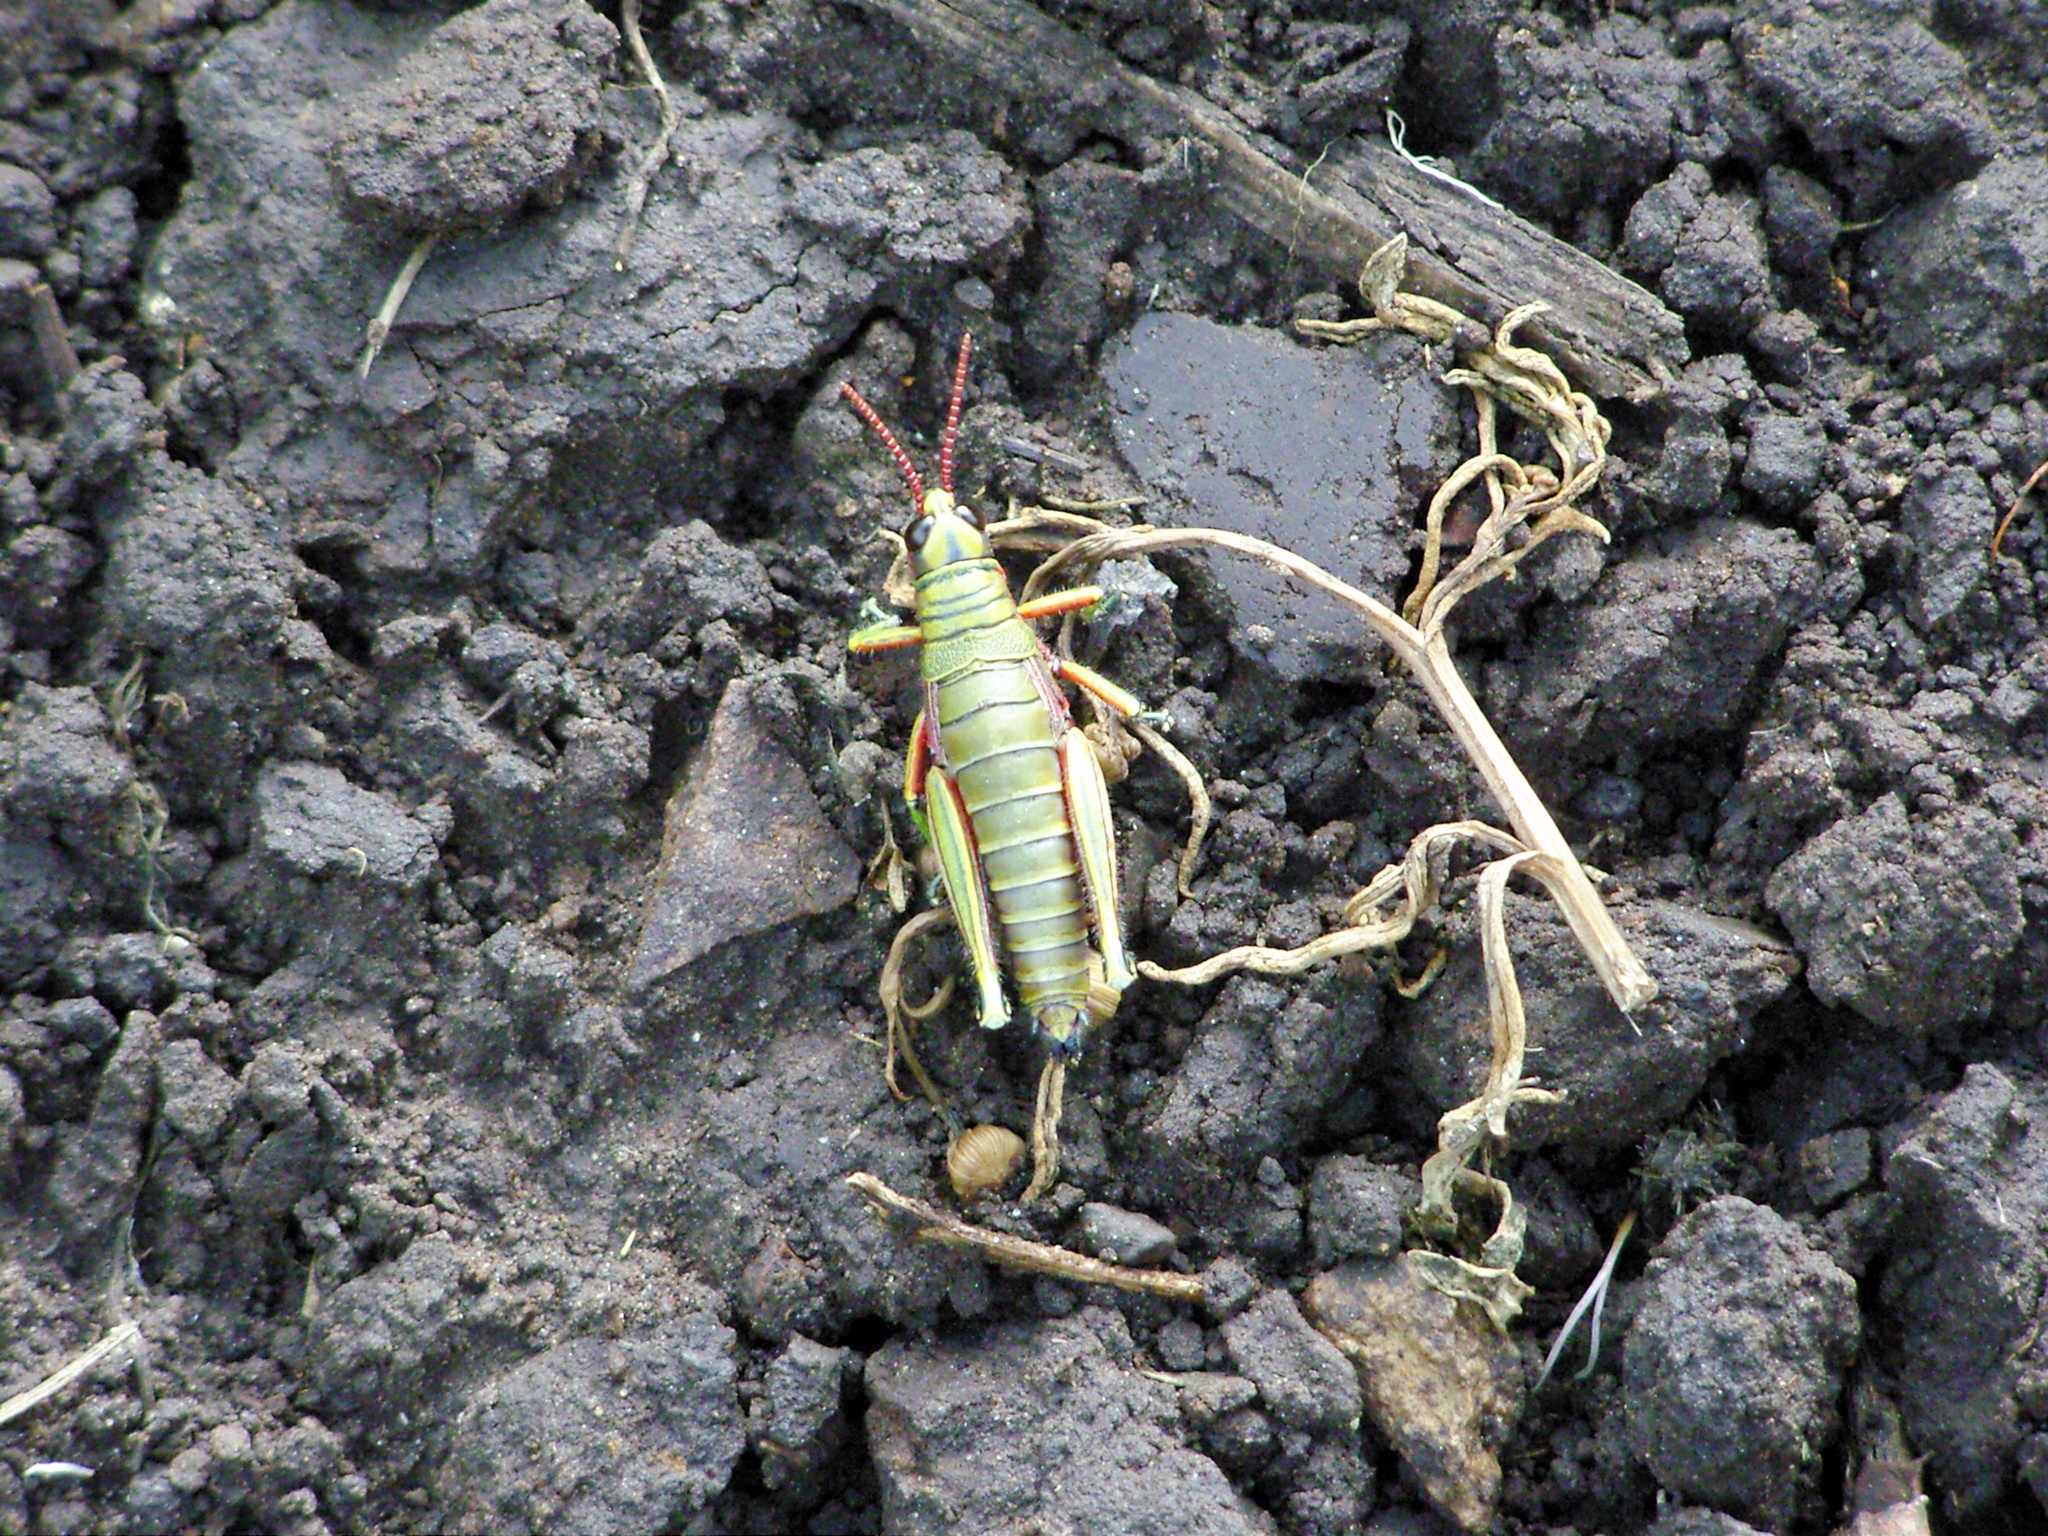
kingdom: Animalia
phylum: Arthropoda
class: Insecta
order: Orthoptera
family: Acrididae
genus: Agesander
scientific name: Agesander ruficornis
